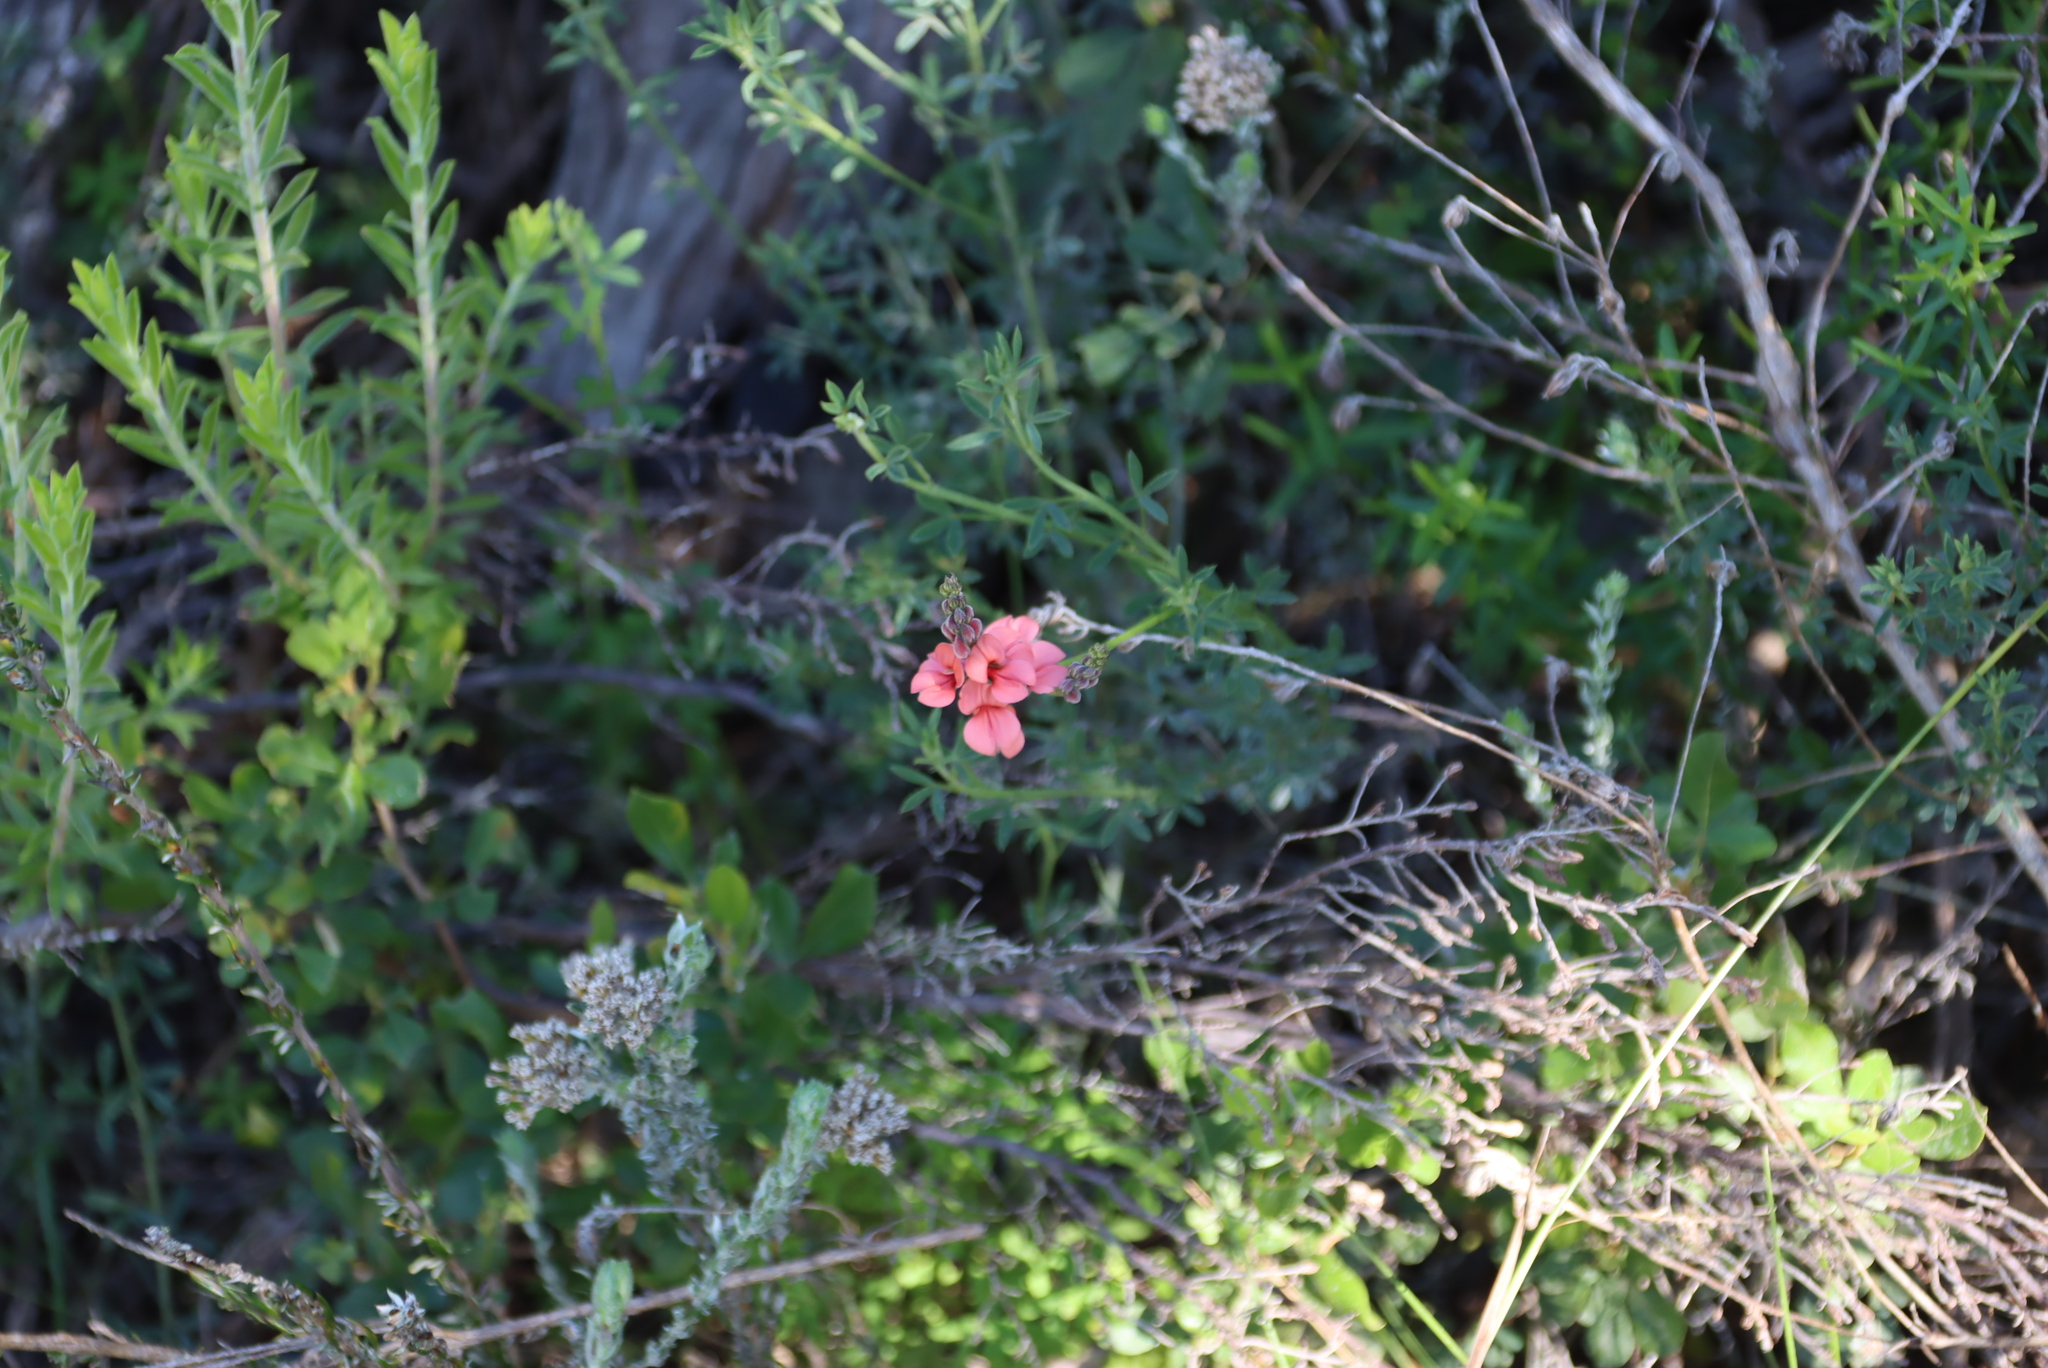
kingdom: Plantae
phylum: Tracheophyta
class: Magnoliopsida
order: Fabales
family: Fabaceae
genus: Indigofera
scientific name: Indigofera heterophylla
